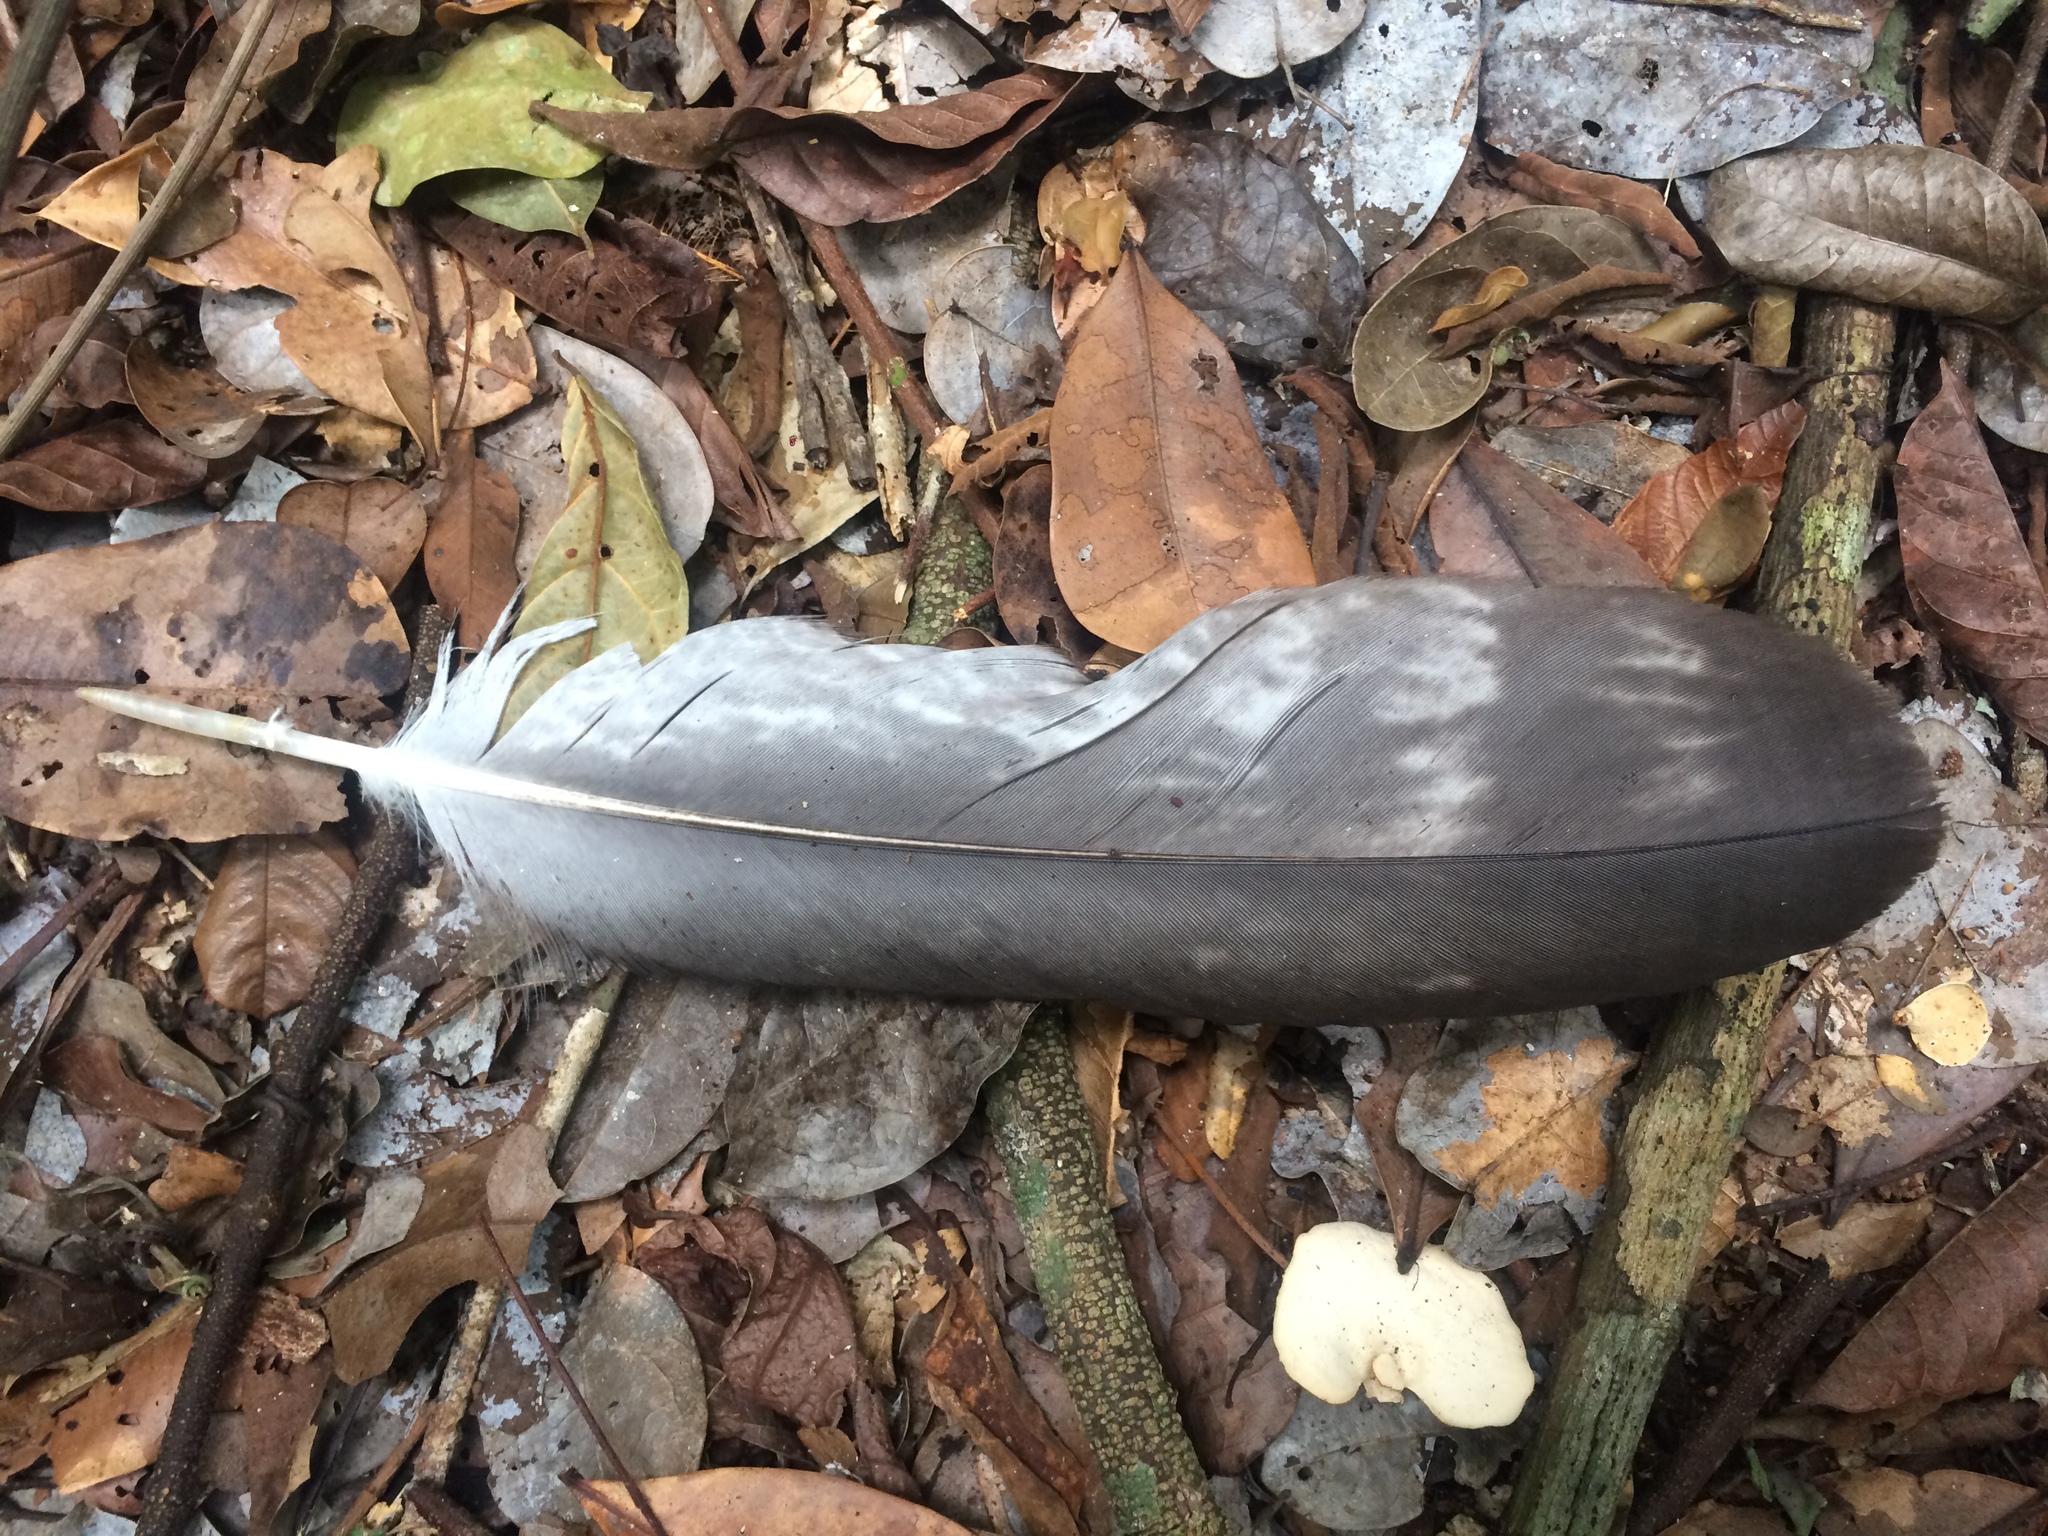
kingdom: Animalia
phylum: Chordata
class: Aves
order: Accipitriformes
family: Accipitridae
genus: Harpia
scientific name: Harpia harpyja
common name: Harpy eagle
